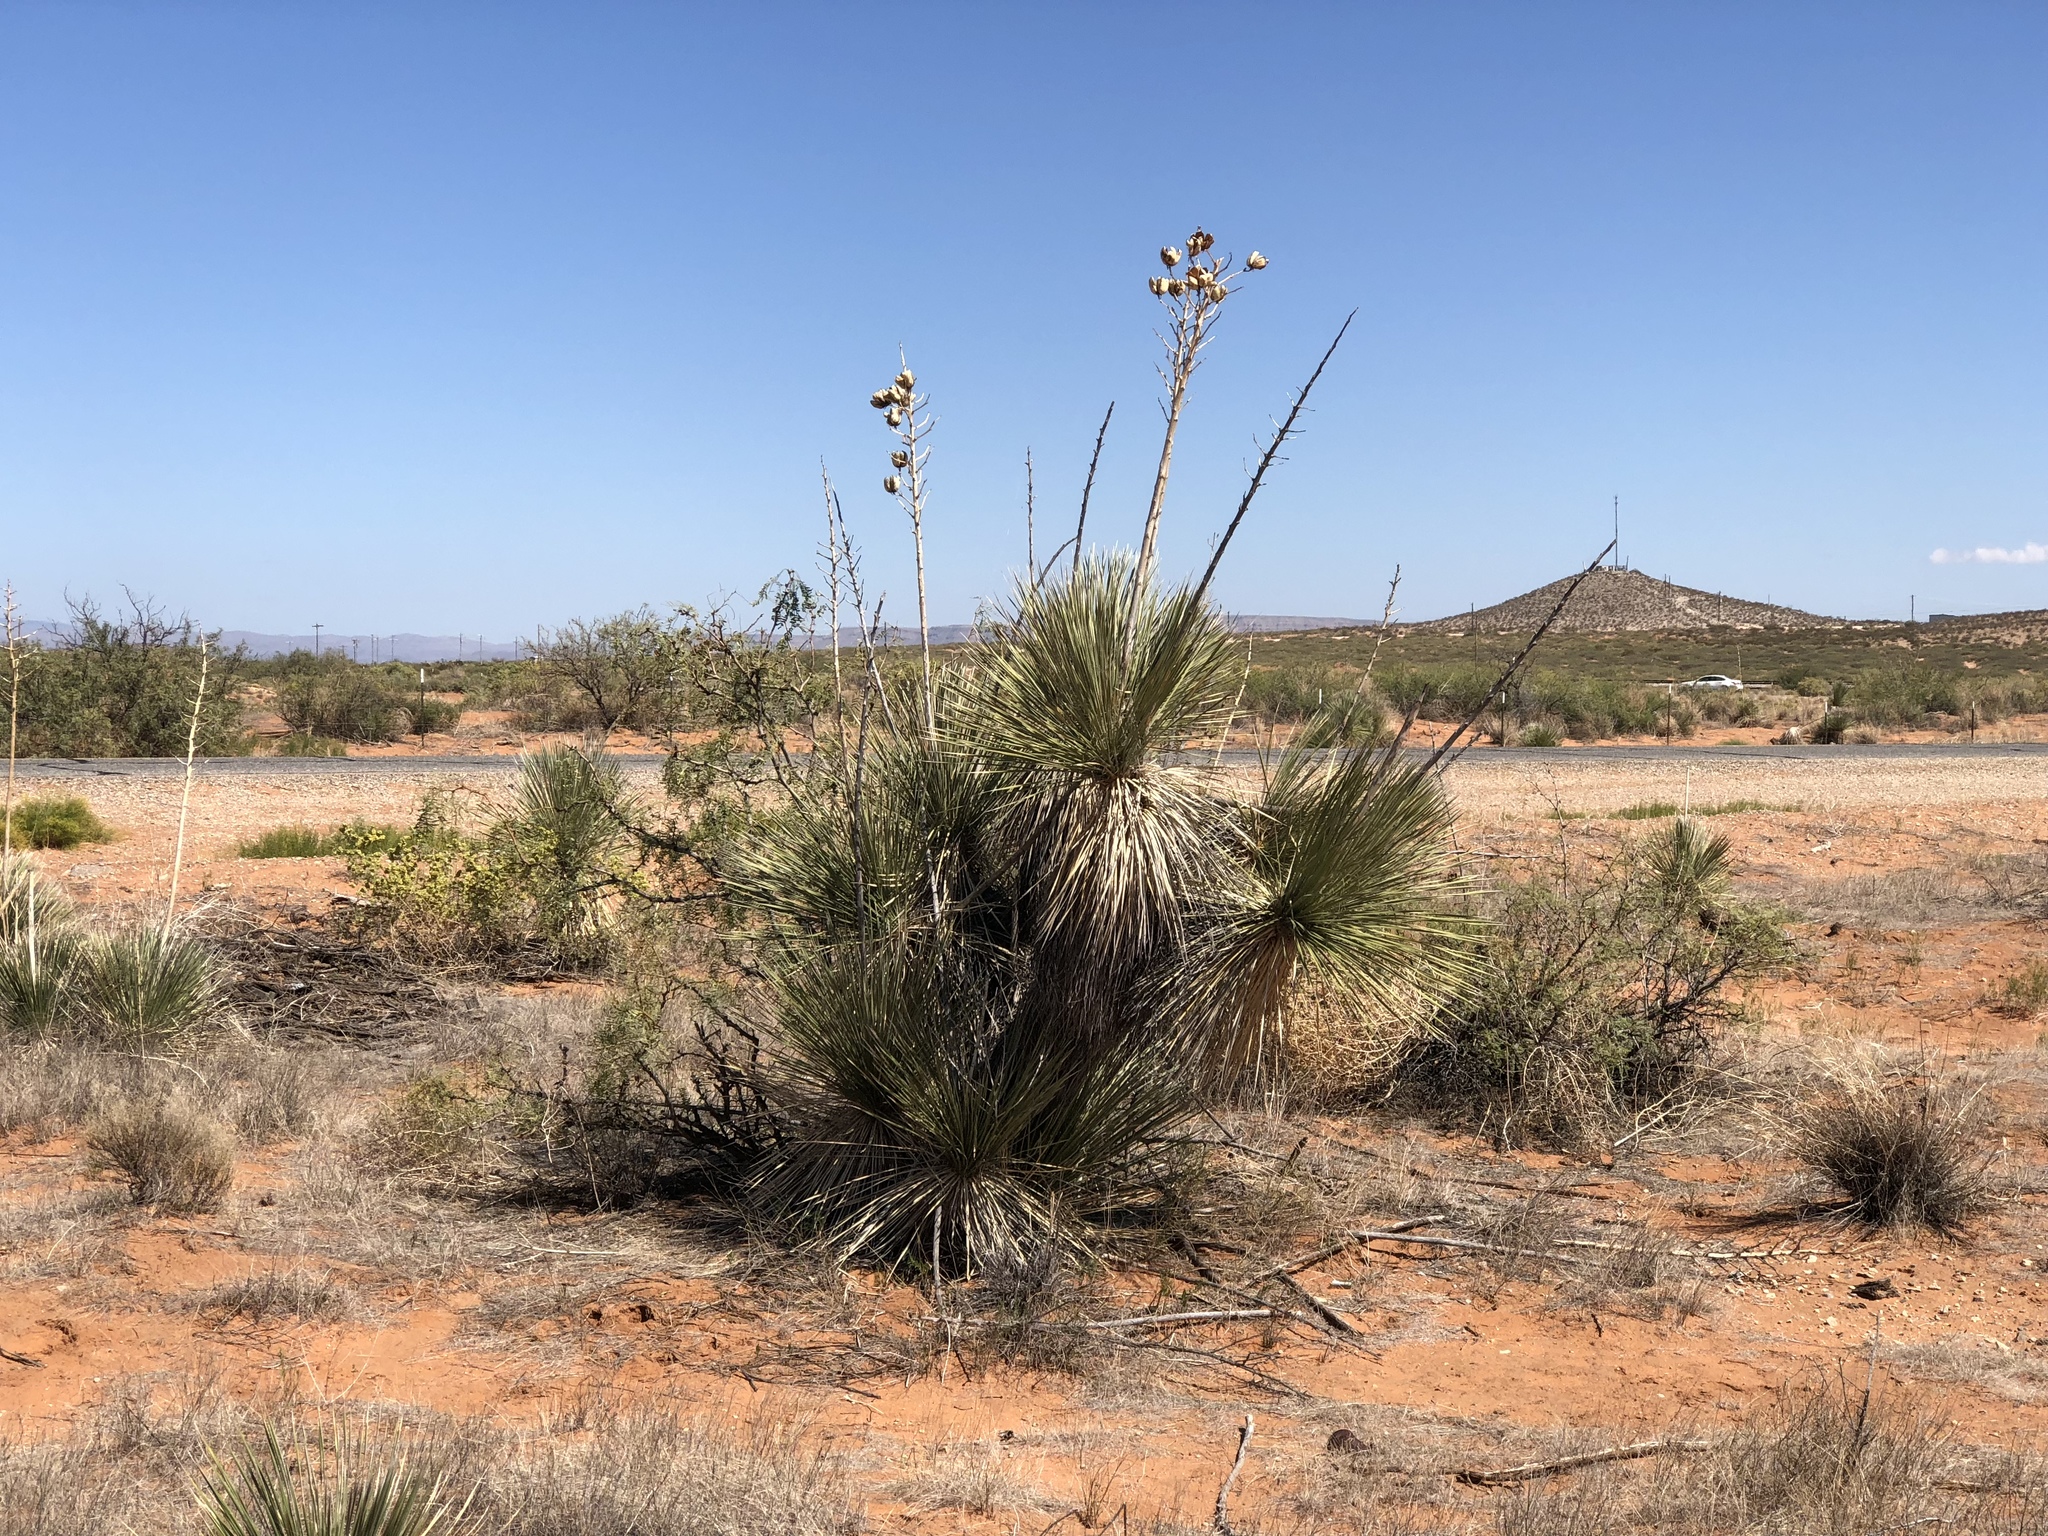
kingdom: Plantae
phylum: Tracheophyta
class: Liliopsida
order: Asparagales
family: Asparagaceae
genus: Yucca
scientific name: Yucca elata
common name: Palmella
